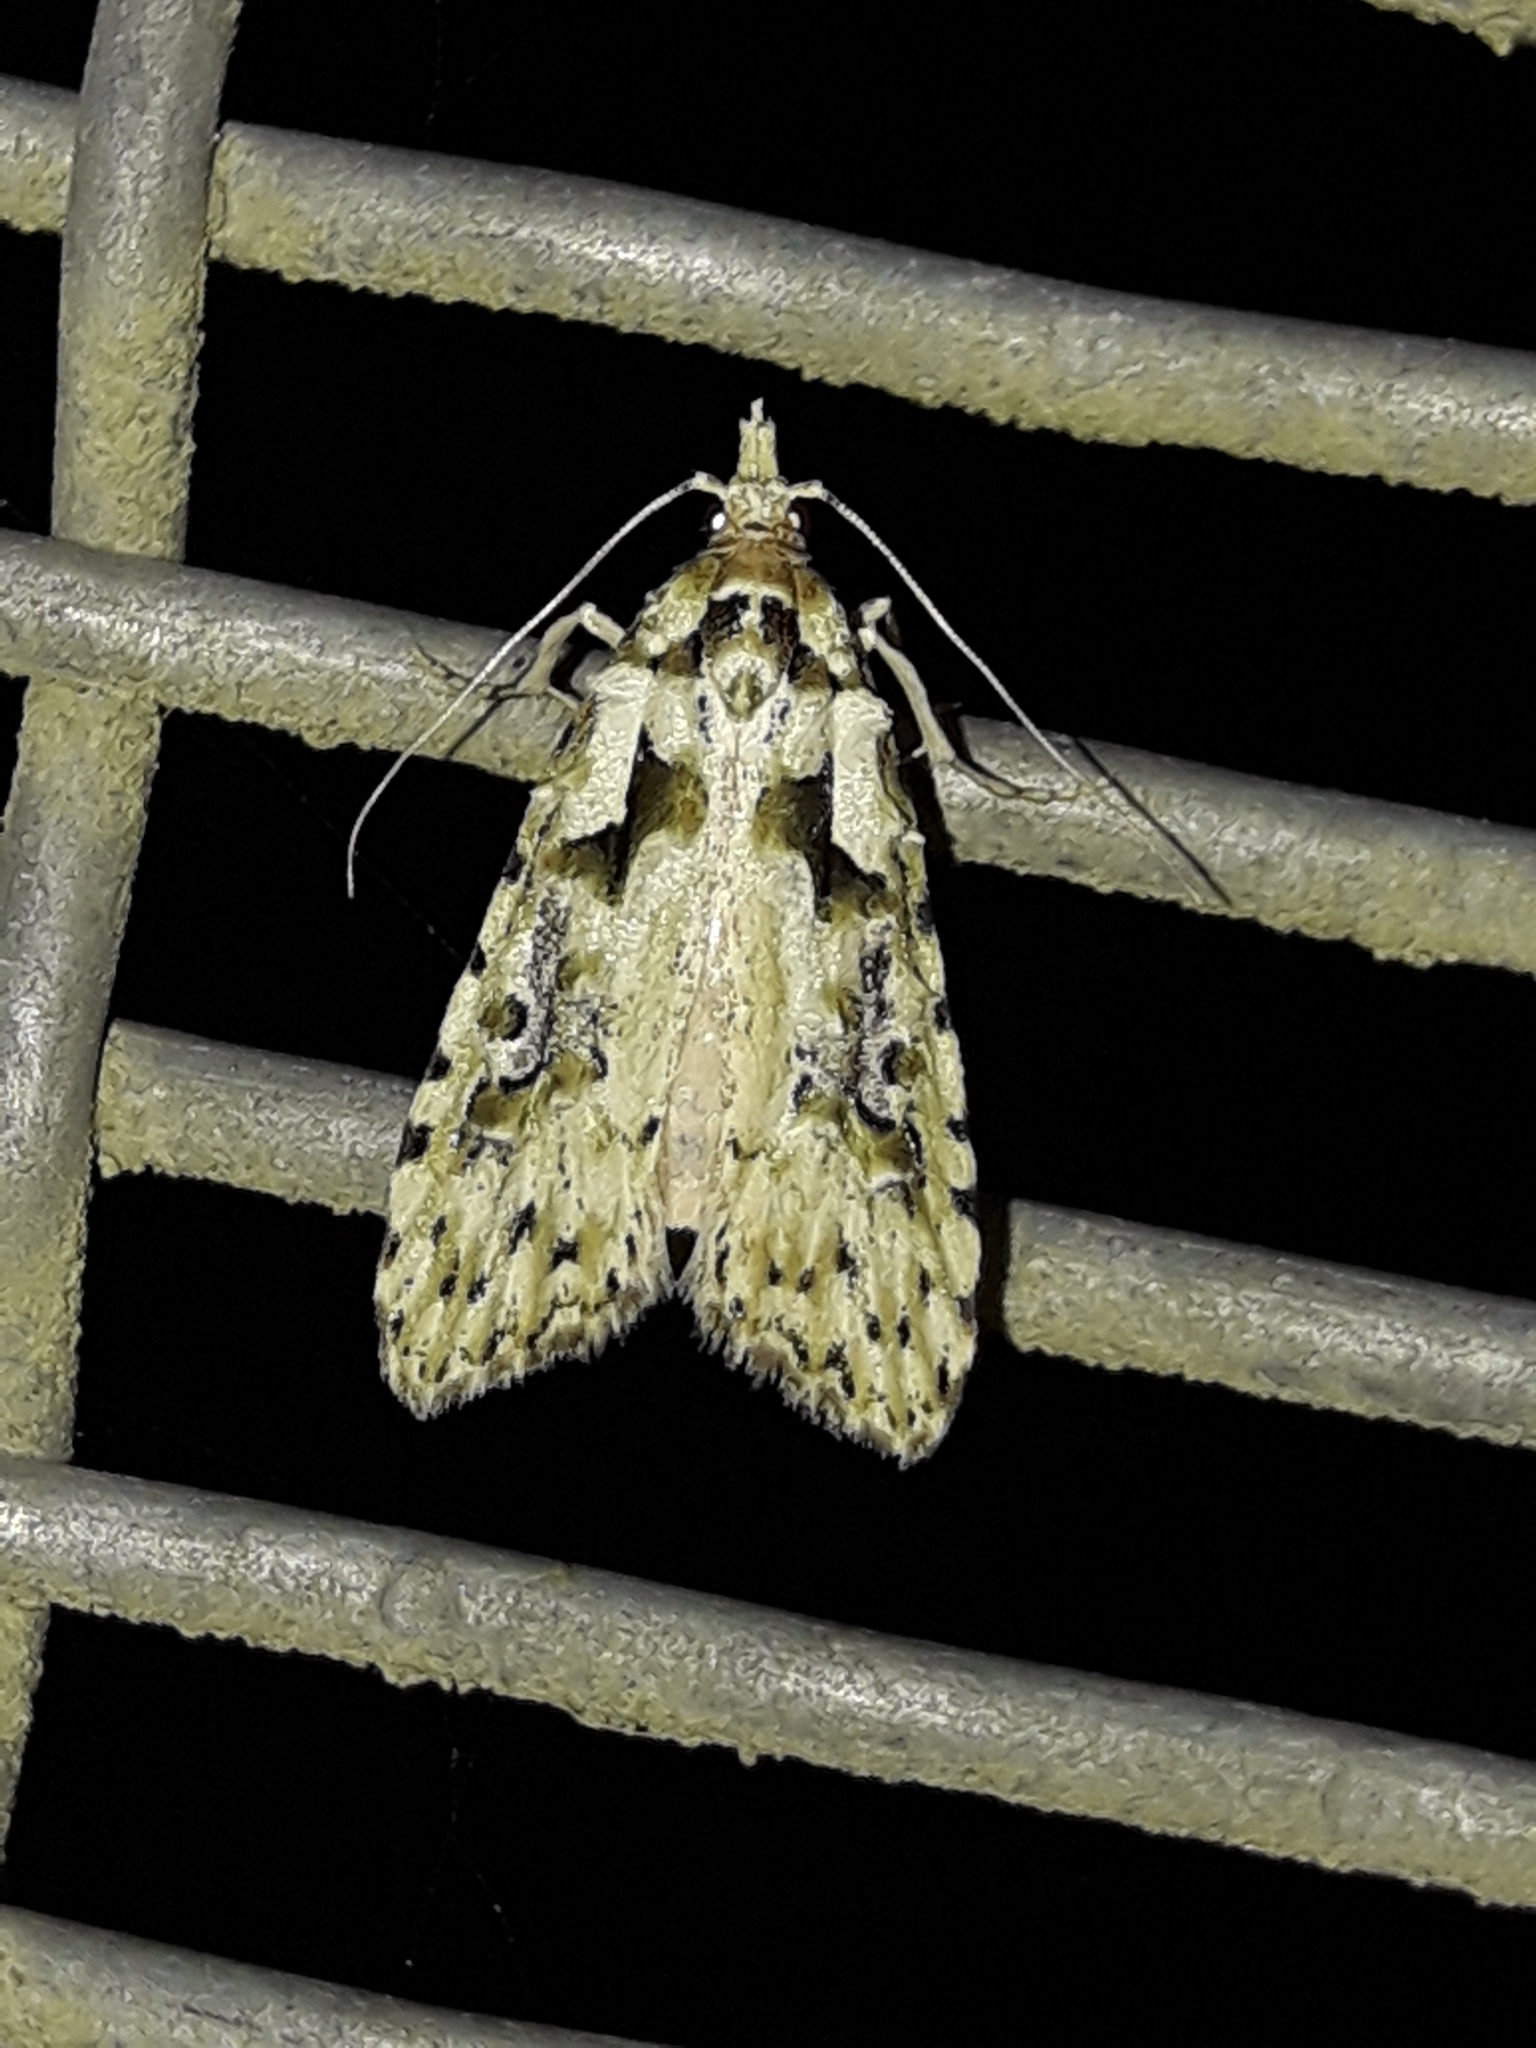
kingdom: Animalia
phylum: Arthropoda
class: Insecta
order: Lepidoptera
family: Carposinidae
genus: Carposina
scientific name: Carposina Heterocrossa eriphylla
